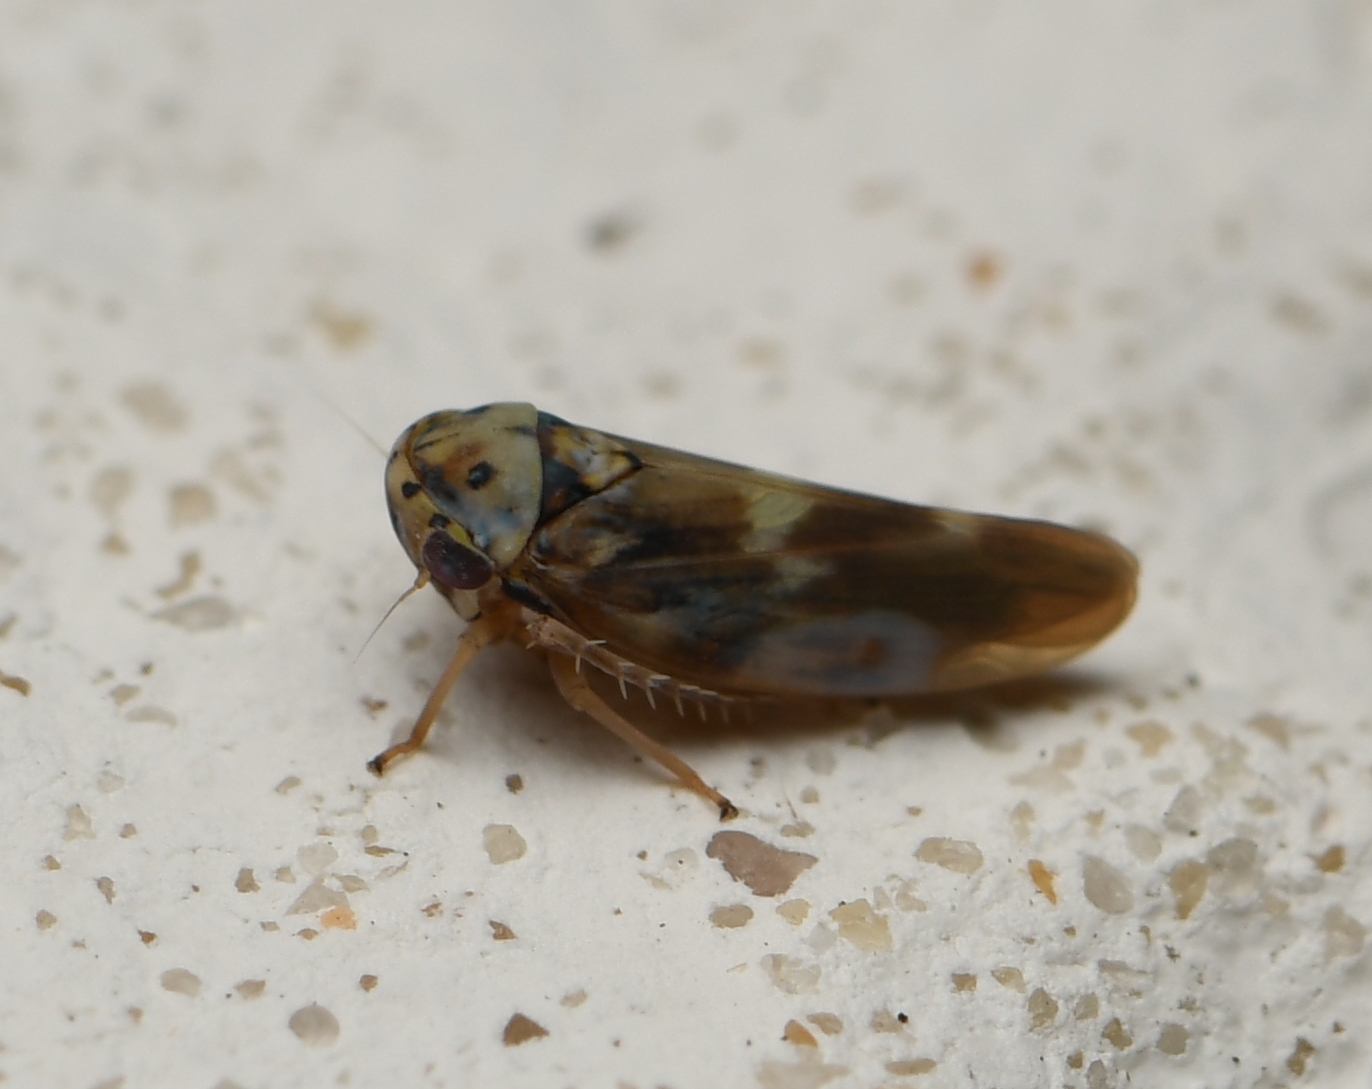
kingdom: Animalia
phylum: Arthropoda
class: Insecta
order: Hemiptera
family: Cicadellidae
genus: Agalliopsis
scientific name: Agalliopsis cervina
